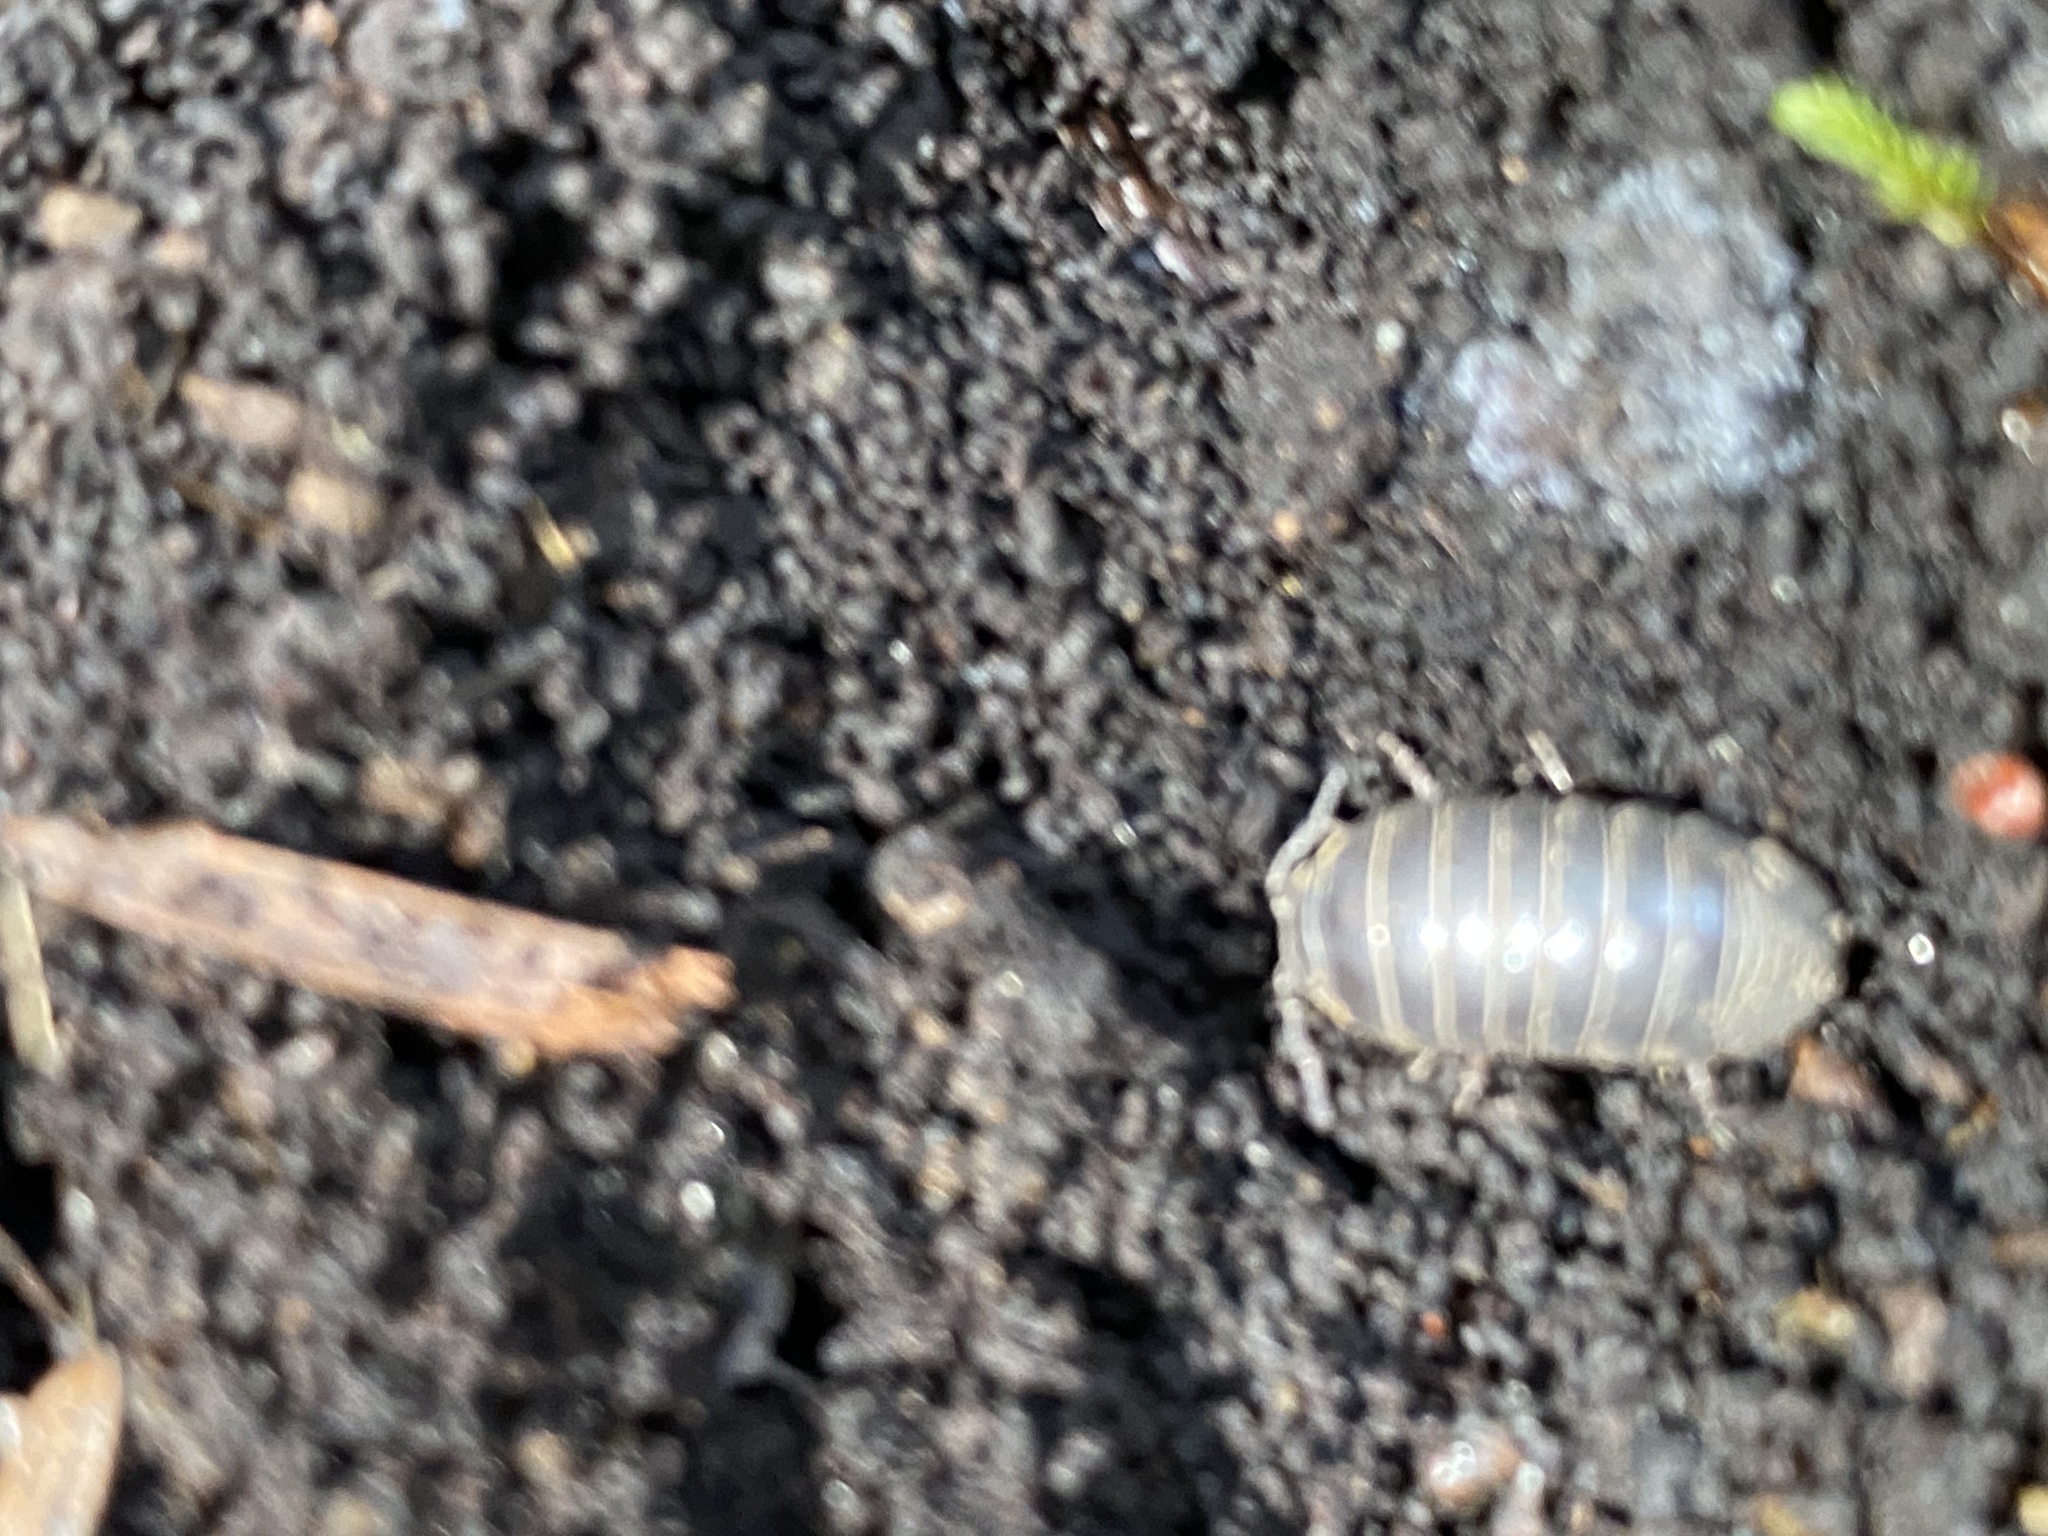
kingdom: Animalia
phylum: Arthropoda
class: Malacostraca
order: Isopoda
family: Armadillidiidae
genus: Armadillidium
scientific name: Armadillidium vulgare
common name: Common pill woodlouse
